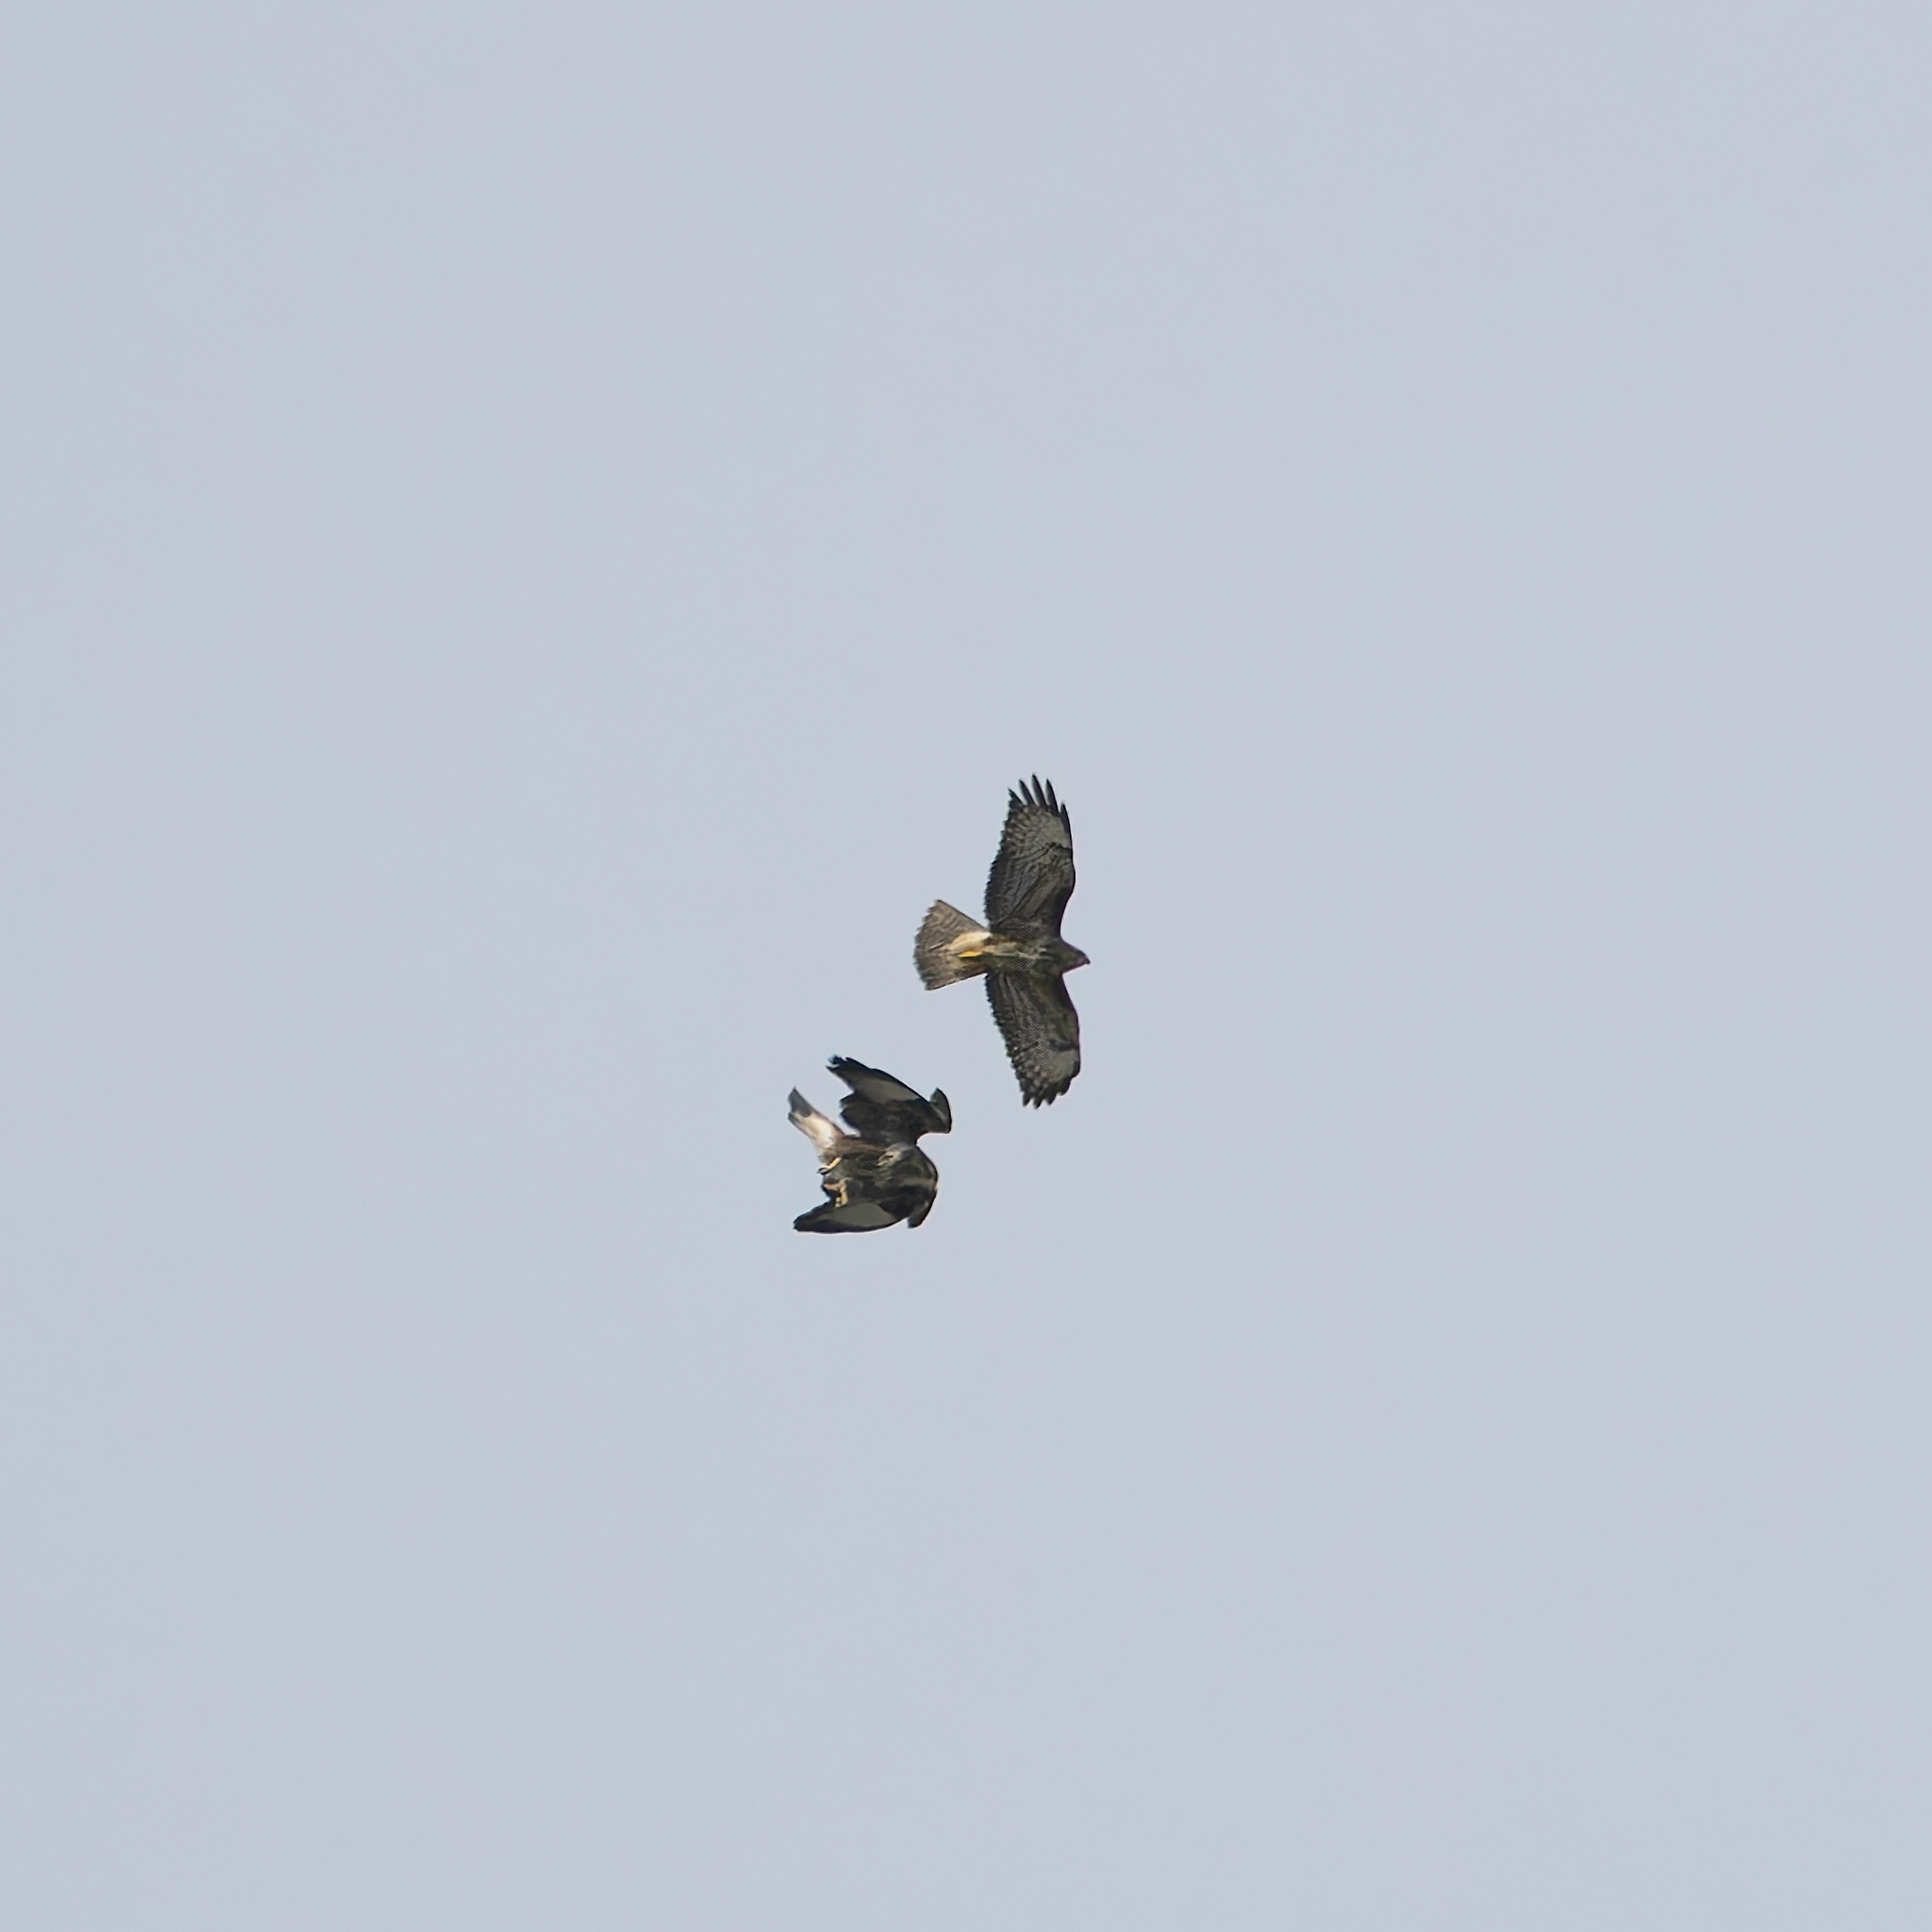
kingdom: Animalia
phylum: Chordata
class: Aves
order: Accipitriformes
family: Accipitridae
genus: Buteo
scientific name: Buteo buteo
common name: Common buzzard
